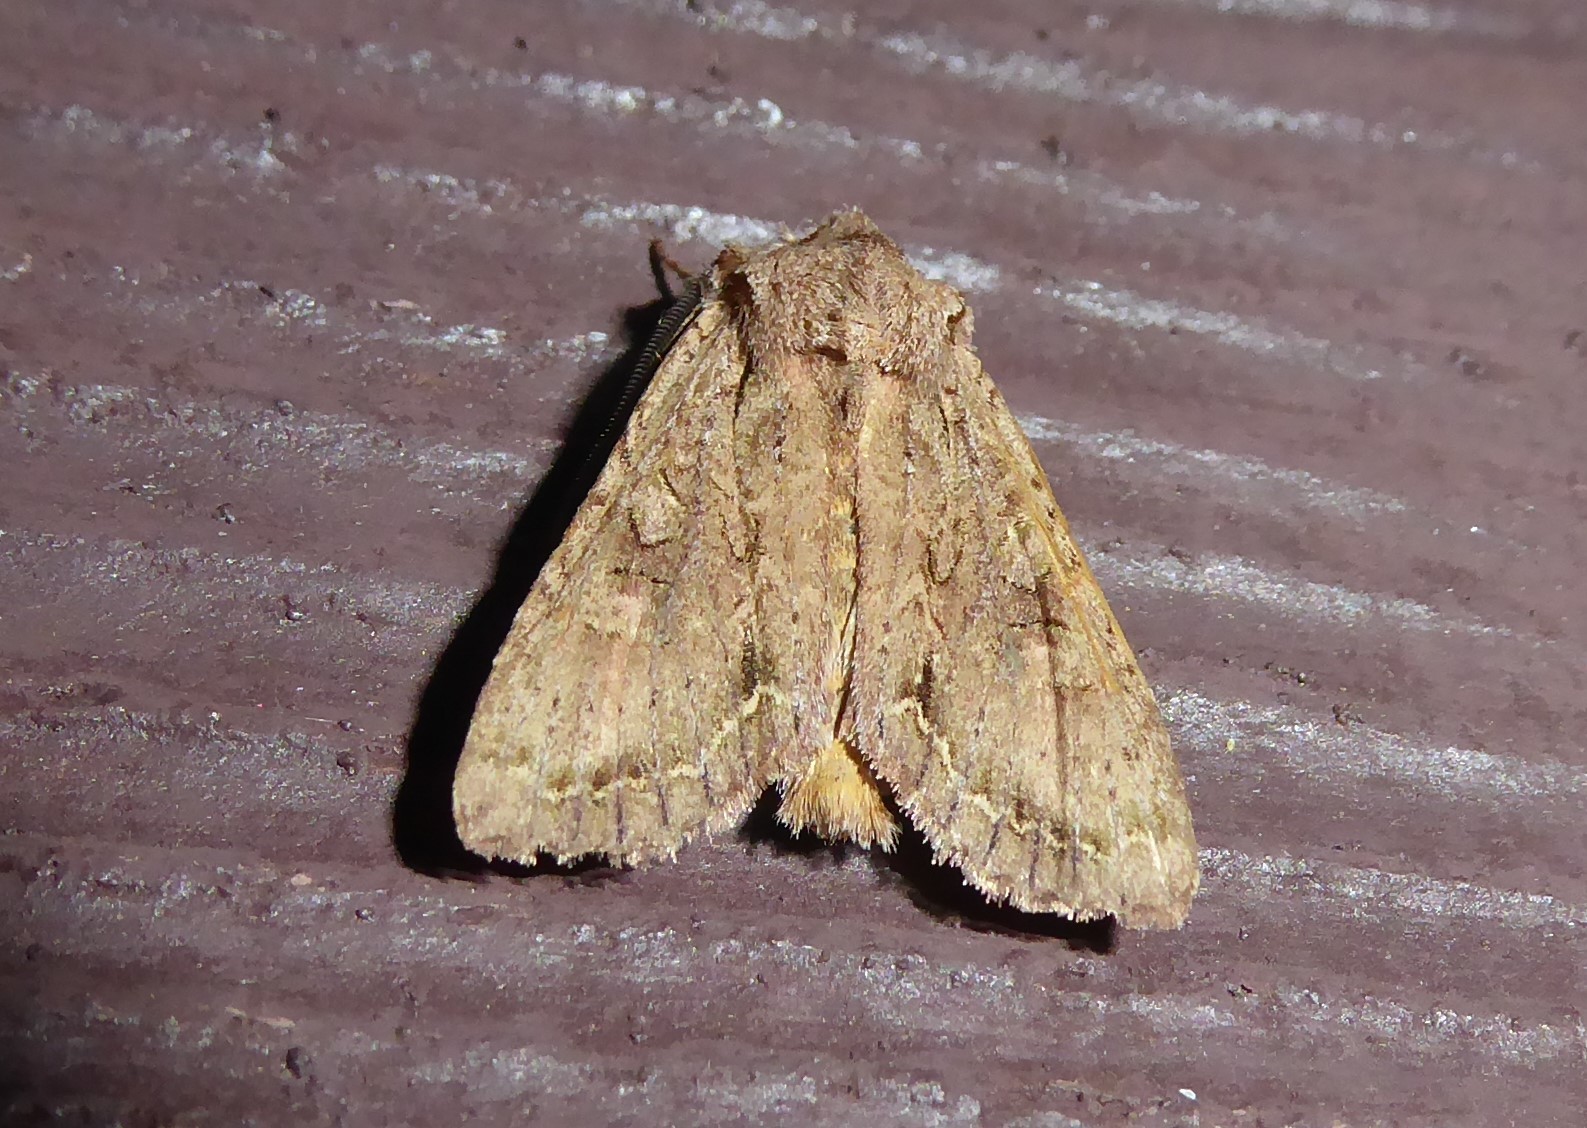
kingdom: Animalia
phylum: Arthropoda
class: Insecta
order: Lepidoptera
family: Noctuidae
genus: Ichneutica
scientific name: Ichneutica
